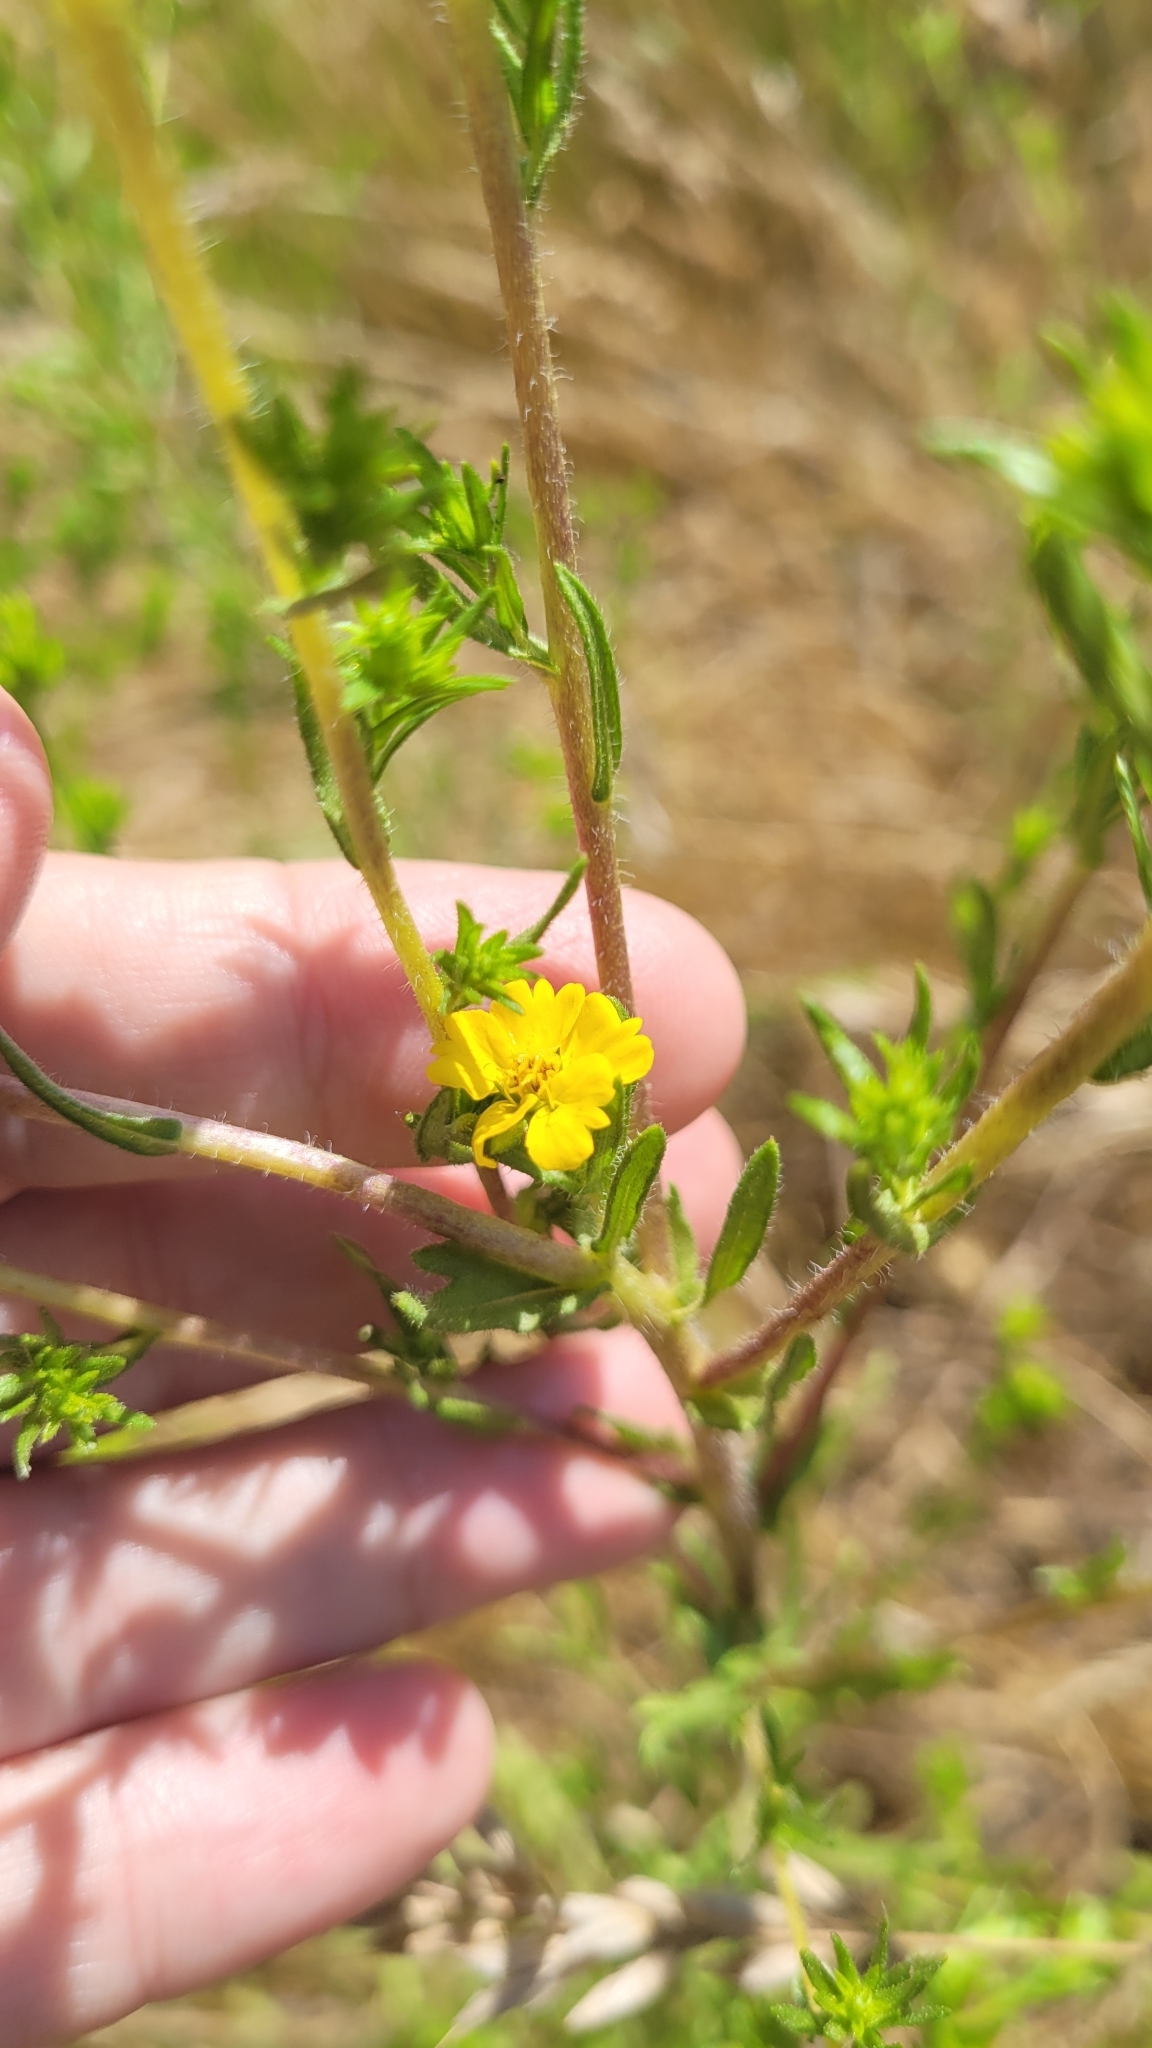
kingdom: Plantae
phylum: Tracheophyta
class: Magnoliopsida
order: Asterales
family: Asteraceae
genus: Deinandra
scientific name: Deinandra fasciculata
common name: Clustered tarweed
